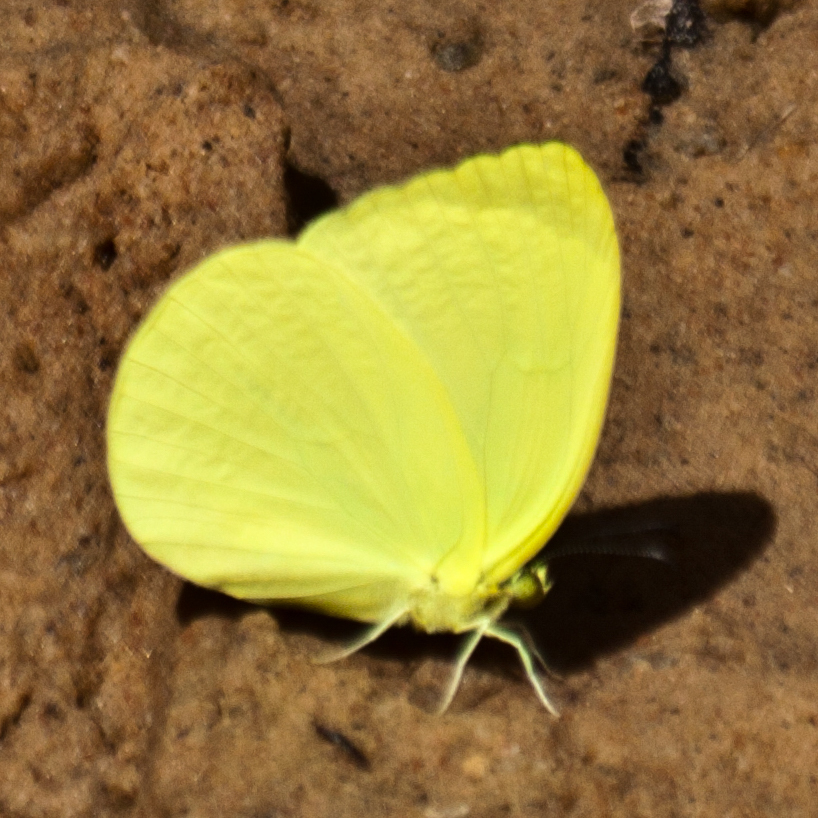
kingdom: Animalia
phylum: Arthropoda
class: Insecta
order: Lepidoptera
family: Pieridae
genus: Gandaca
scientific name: Gandaca harina
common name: Tree yellow
